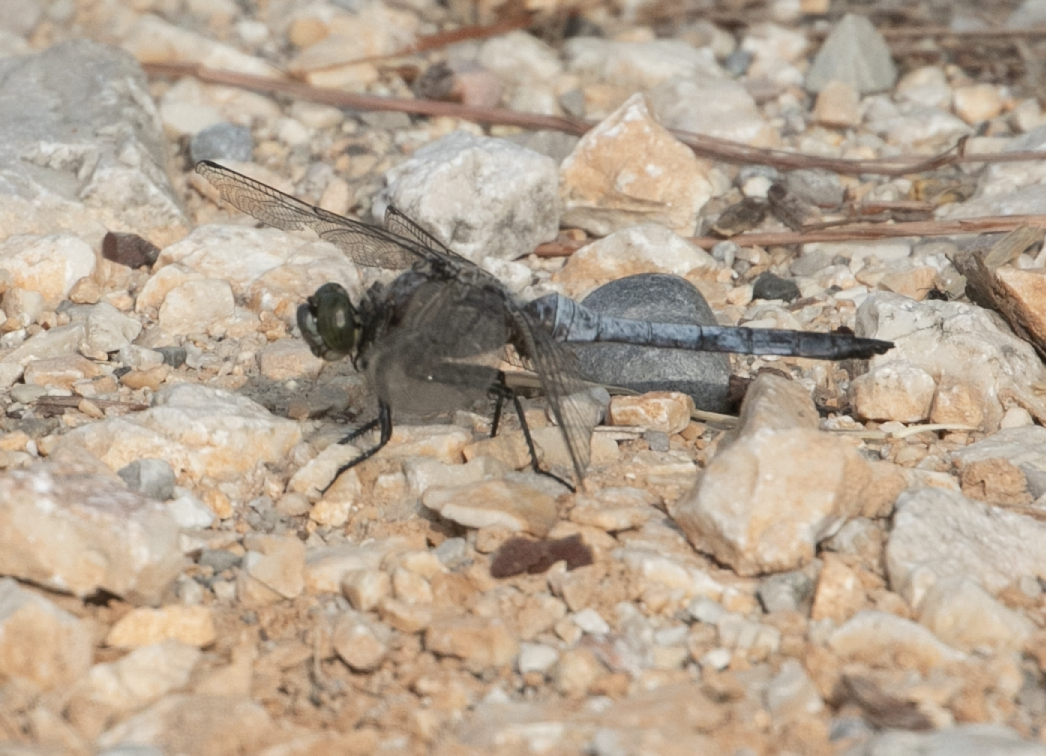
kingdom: Animalia
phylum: Arthropoda
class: Insecta
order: Odonata
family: Libellulidae
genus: Orthetrum
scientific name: Orthetrum cancellatum
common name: Black-tailed skimmer
